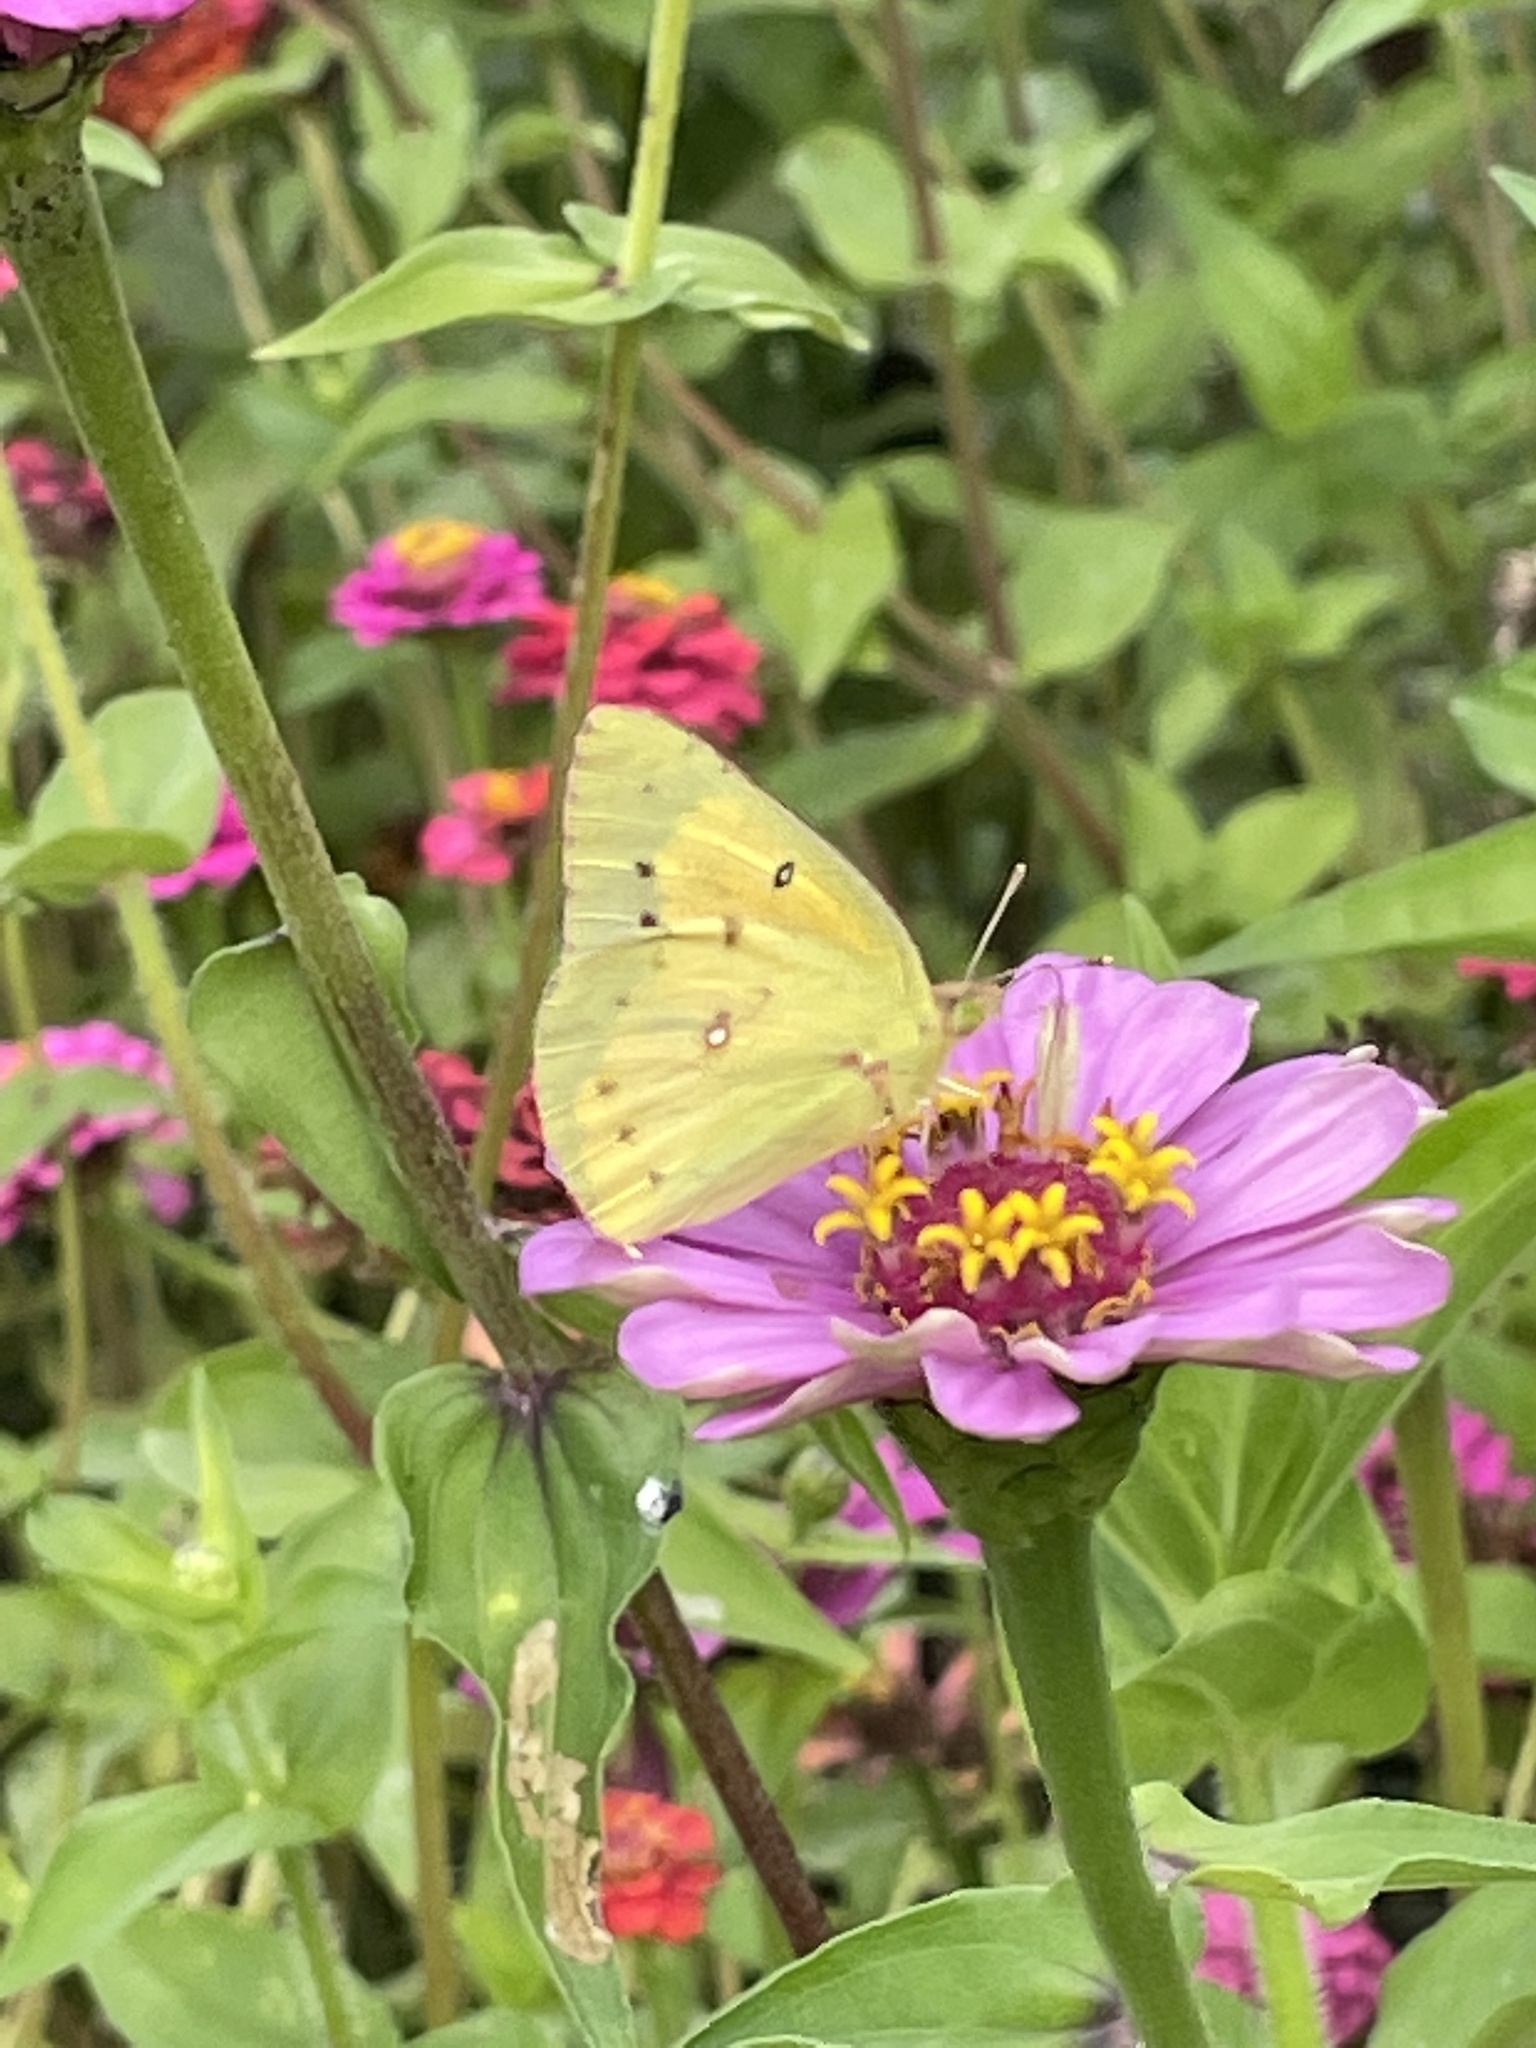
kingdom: Animalia
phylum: Arthropoda
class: Insecta
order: Lepidoptera
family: Pieridae
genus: Colias
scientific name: Colias eurytheme
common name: Alfalfa butterfly
